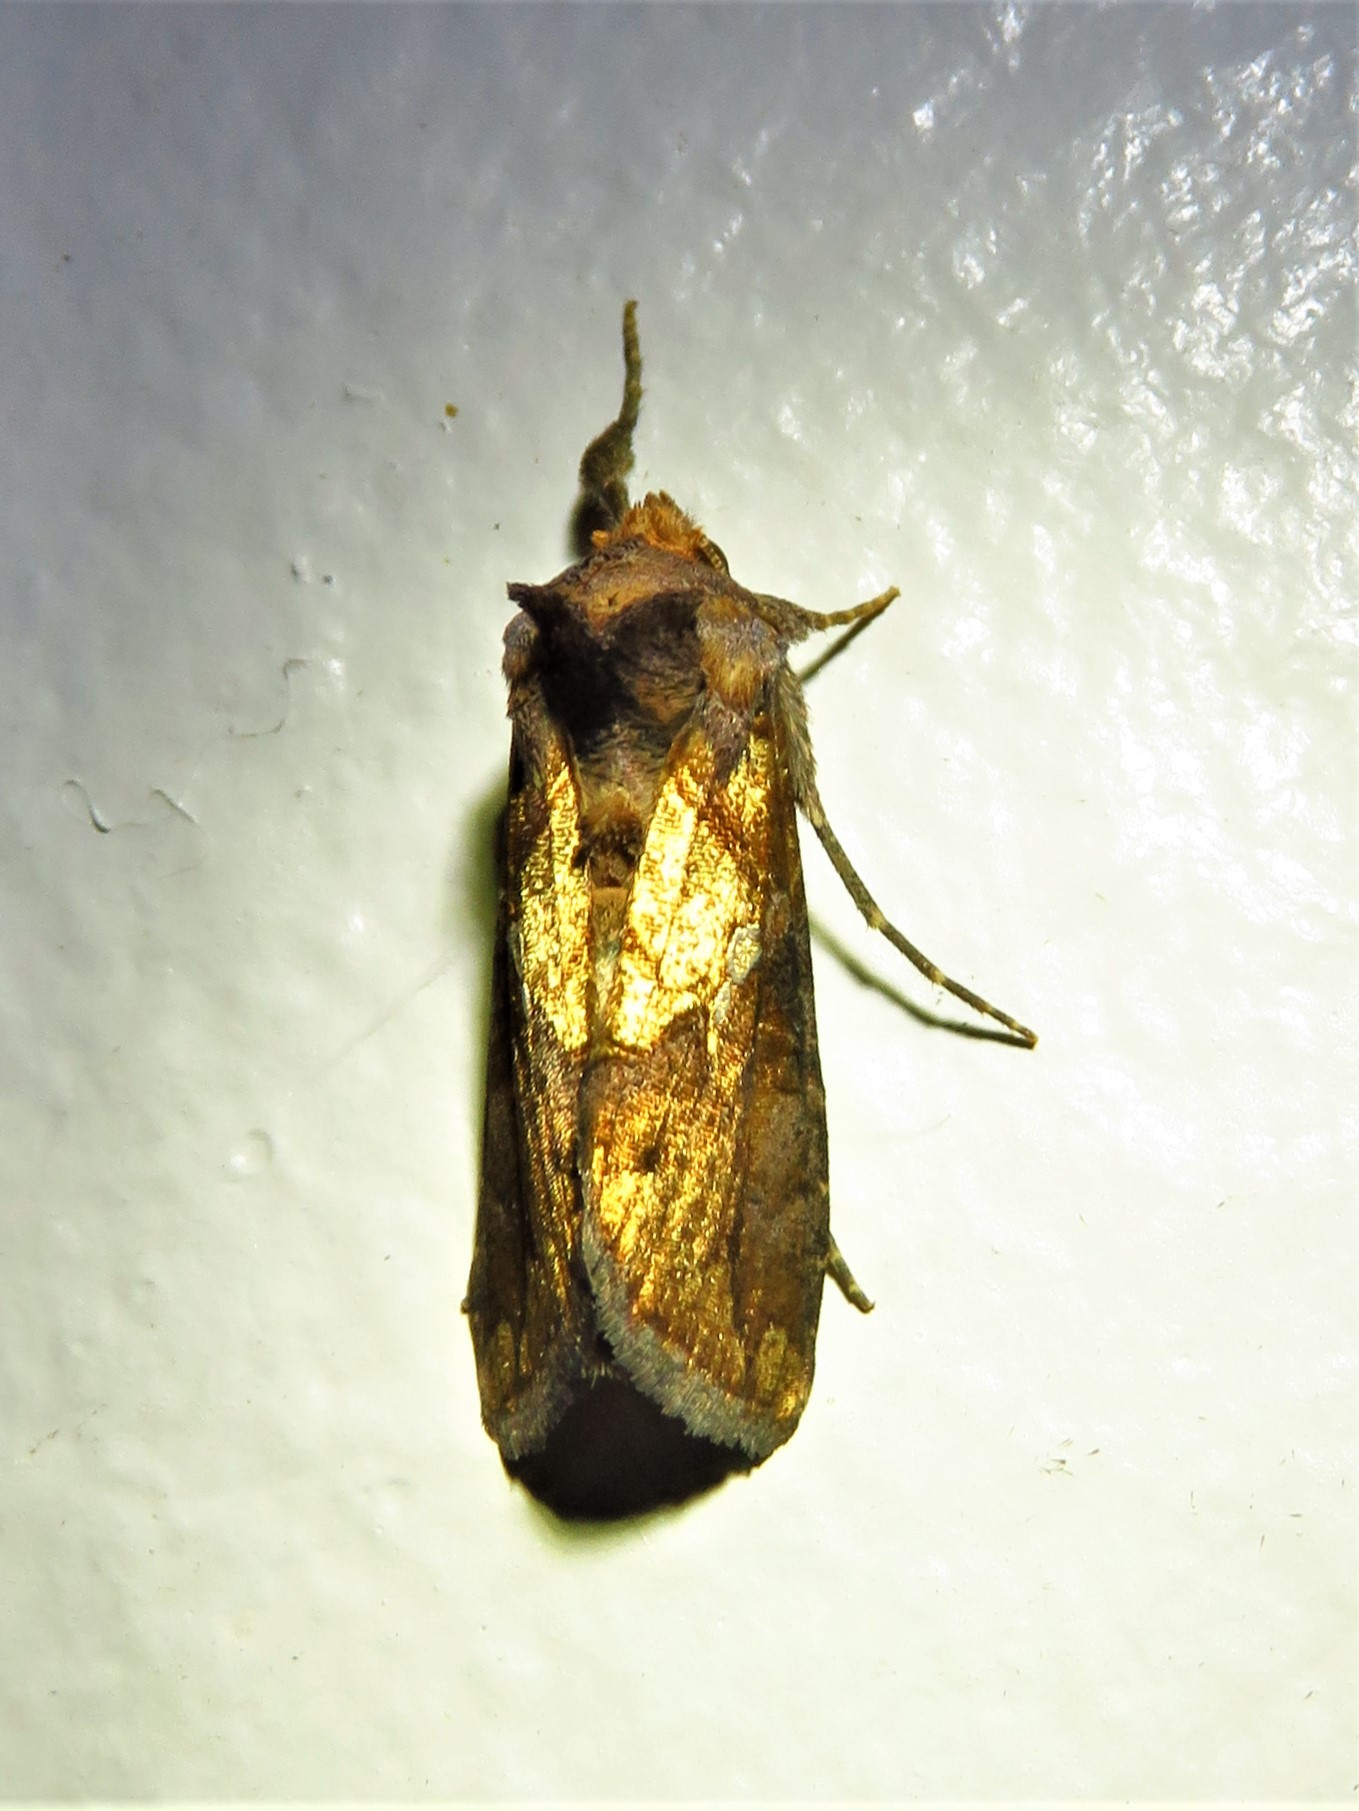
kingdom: Animalia
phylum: Arthropoda
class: Insecta
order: Lepidoptera
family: Noctuidae
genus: Argyrogramma
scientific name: Argyrogramma verruca
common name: Golden looper moth
